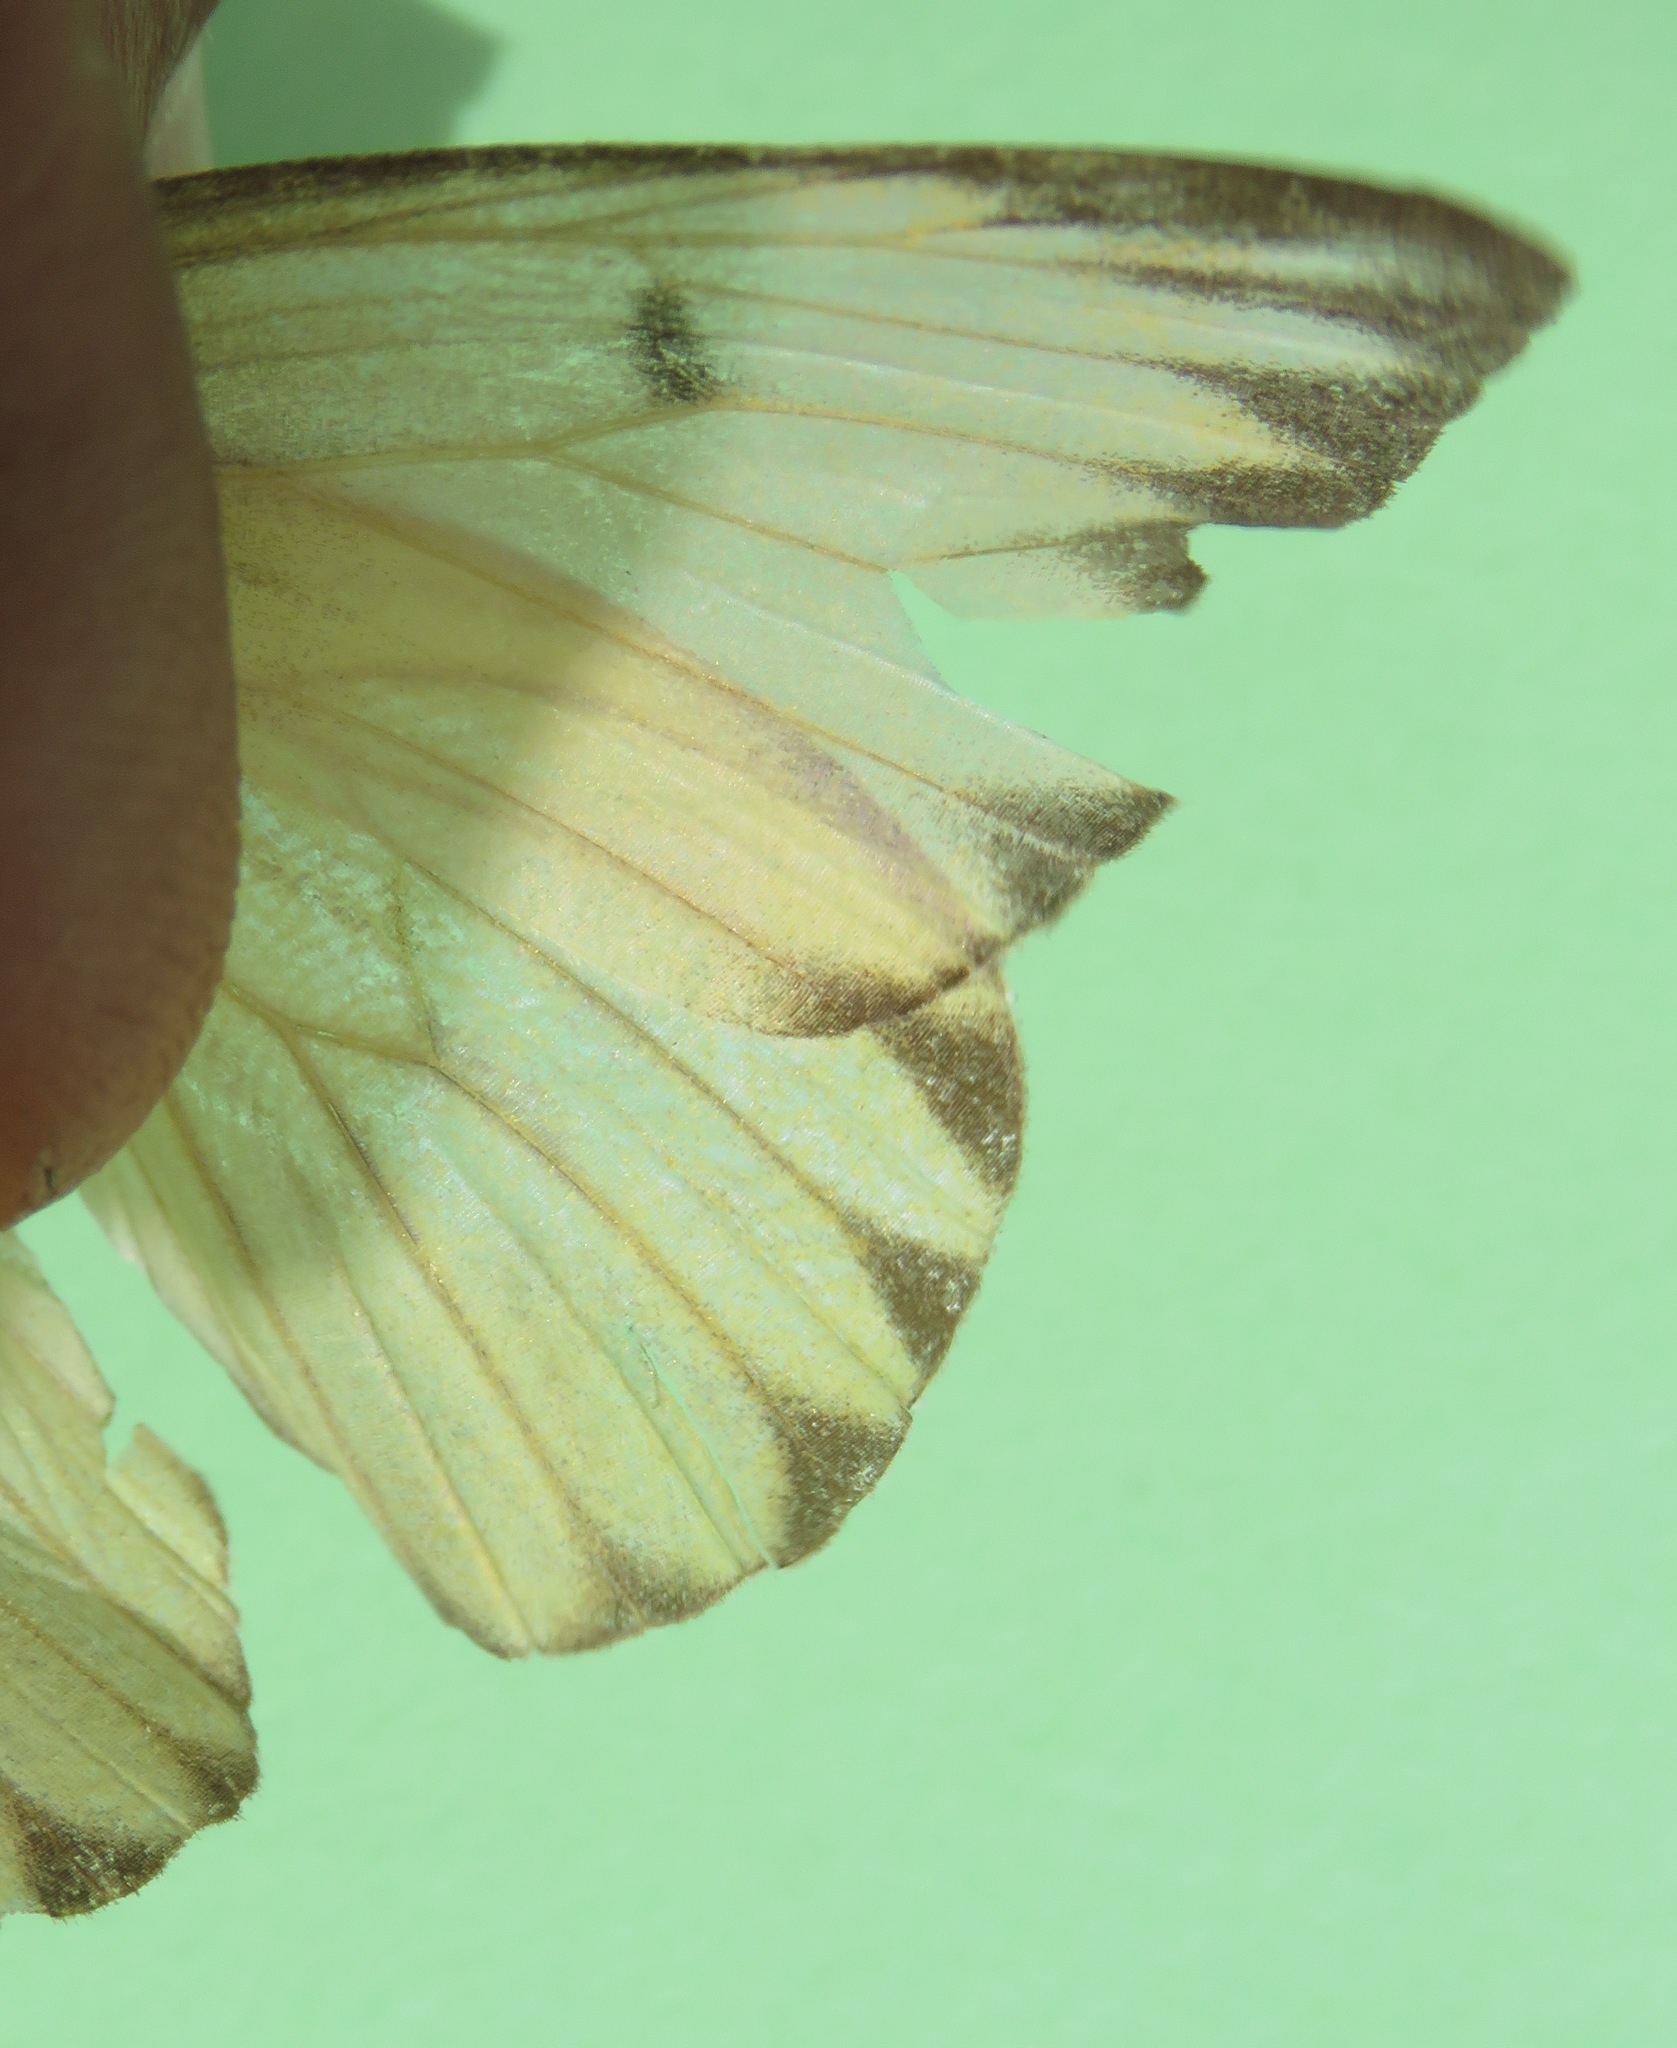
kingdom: Animalia
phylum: Arthropoda
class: Insecta
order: Lepidoptera
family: Pieridae
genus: Ascia
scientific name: Ascia monuste
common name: Great southern white
